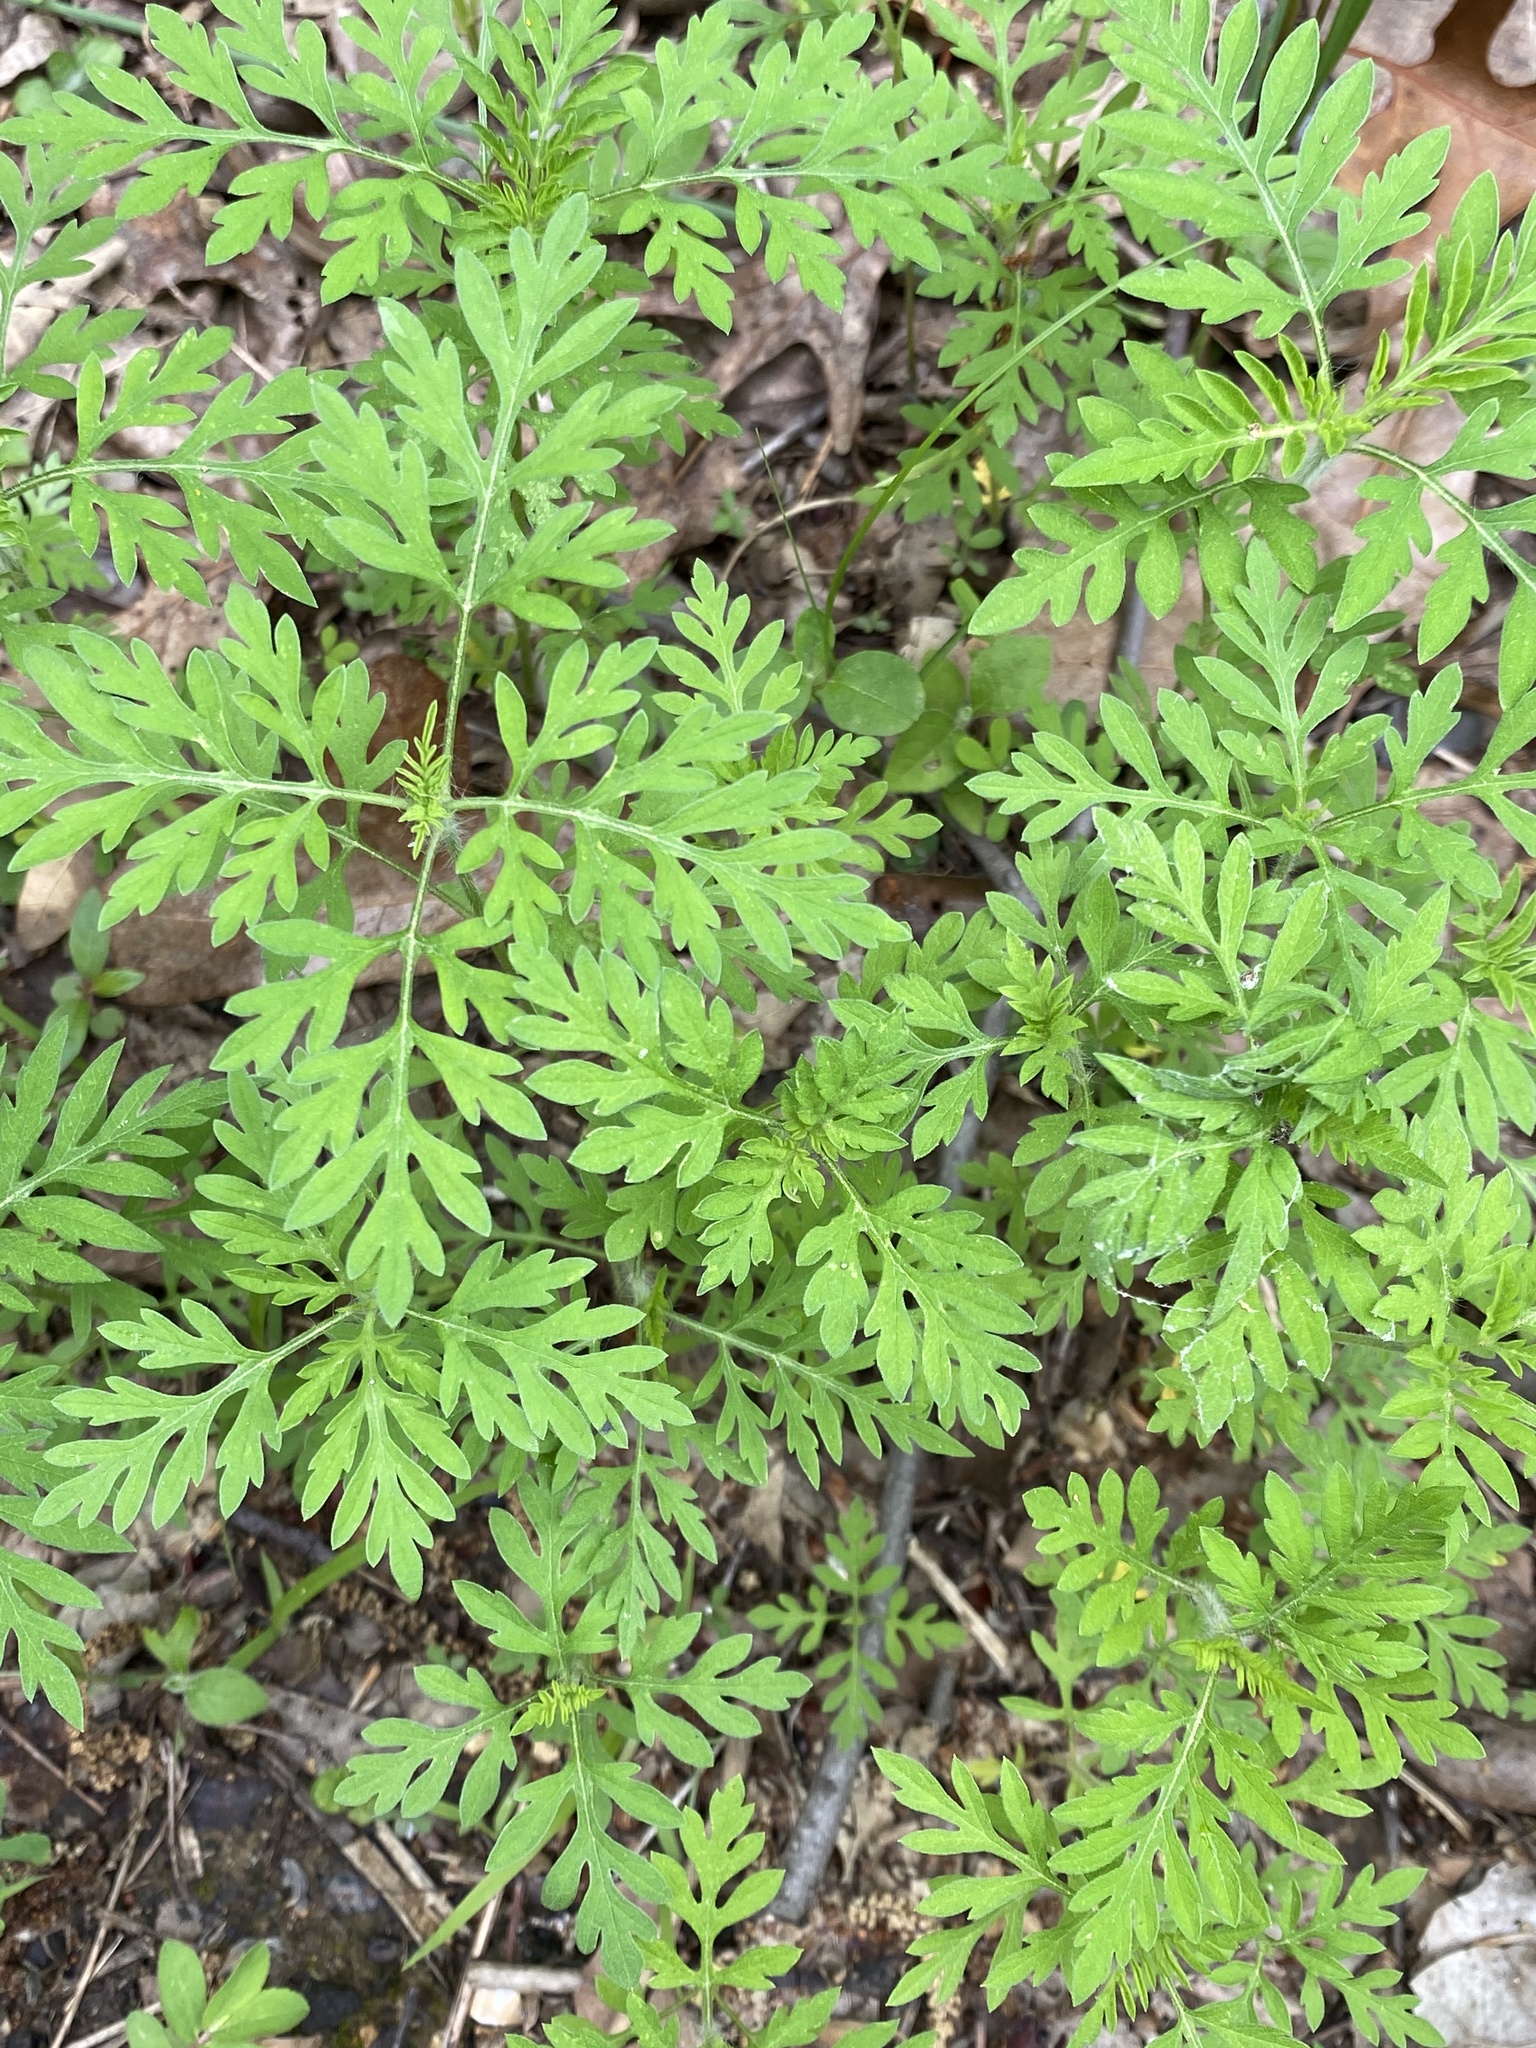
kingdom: Plantae
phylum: Tracheophyta
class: Magnoliopsida
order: Asterales
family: Asteraceae
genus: Ambrosia
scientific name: Ambrosia artemisiifolia
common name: Annual ragweed
